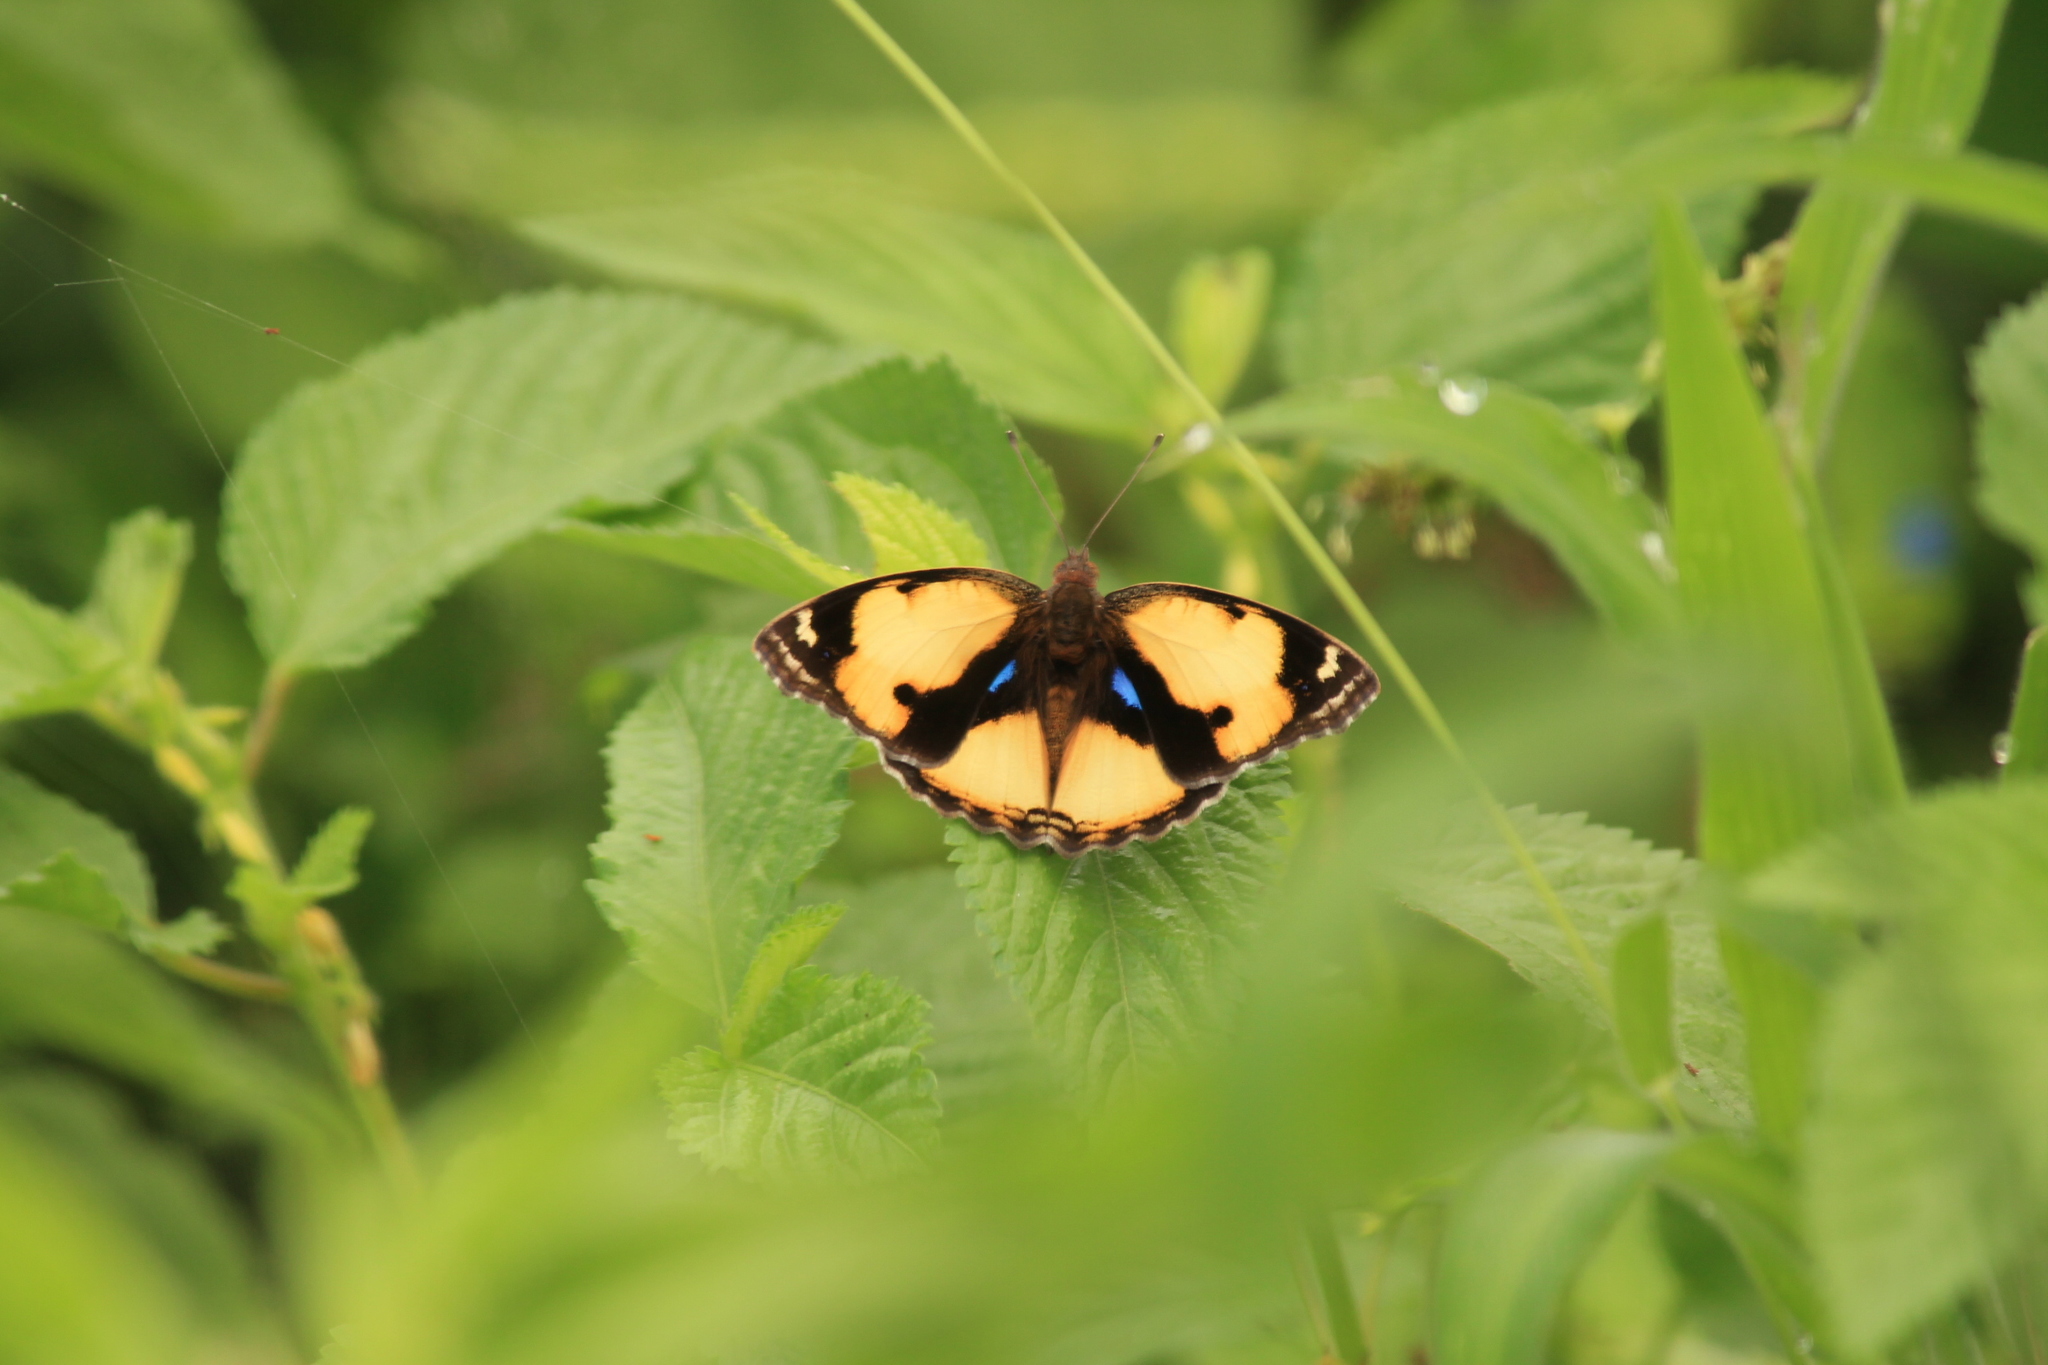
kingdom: Animalia
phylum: Arthropoda
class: Insecta
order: Lepidoptera
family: Nymphalidae
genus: Junonia
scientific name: Junonia hierta
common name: Yellow pansy
